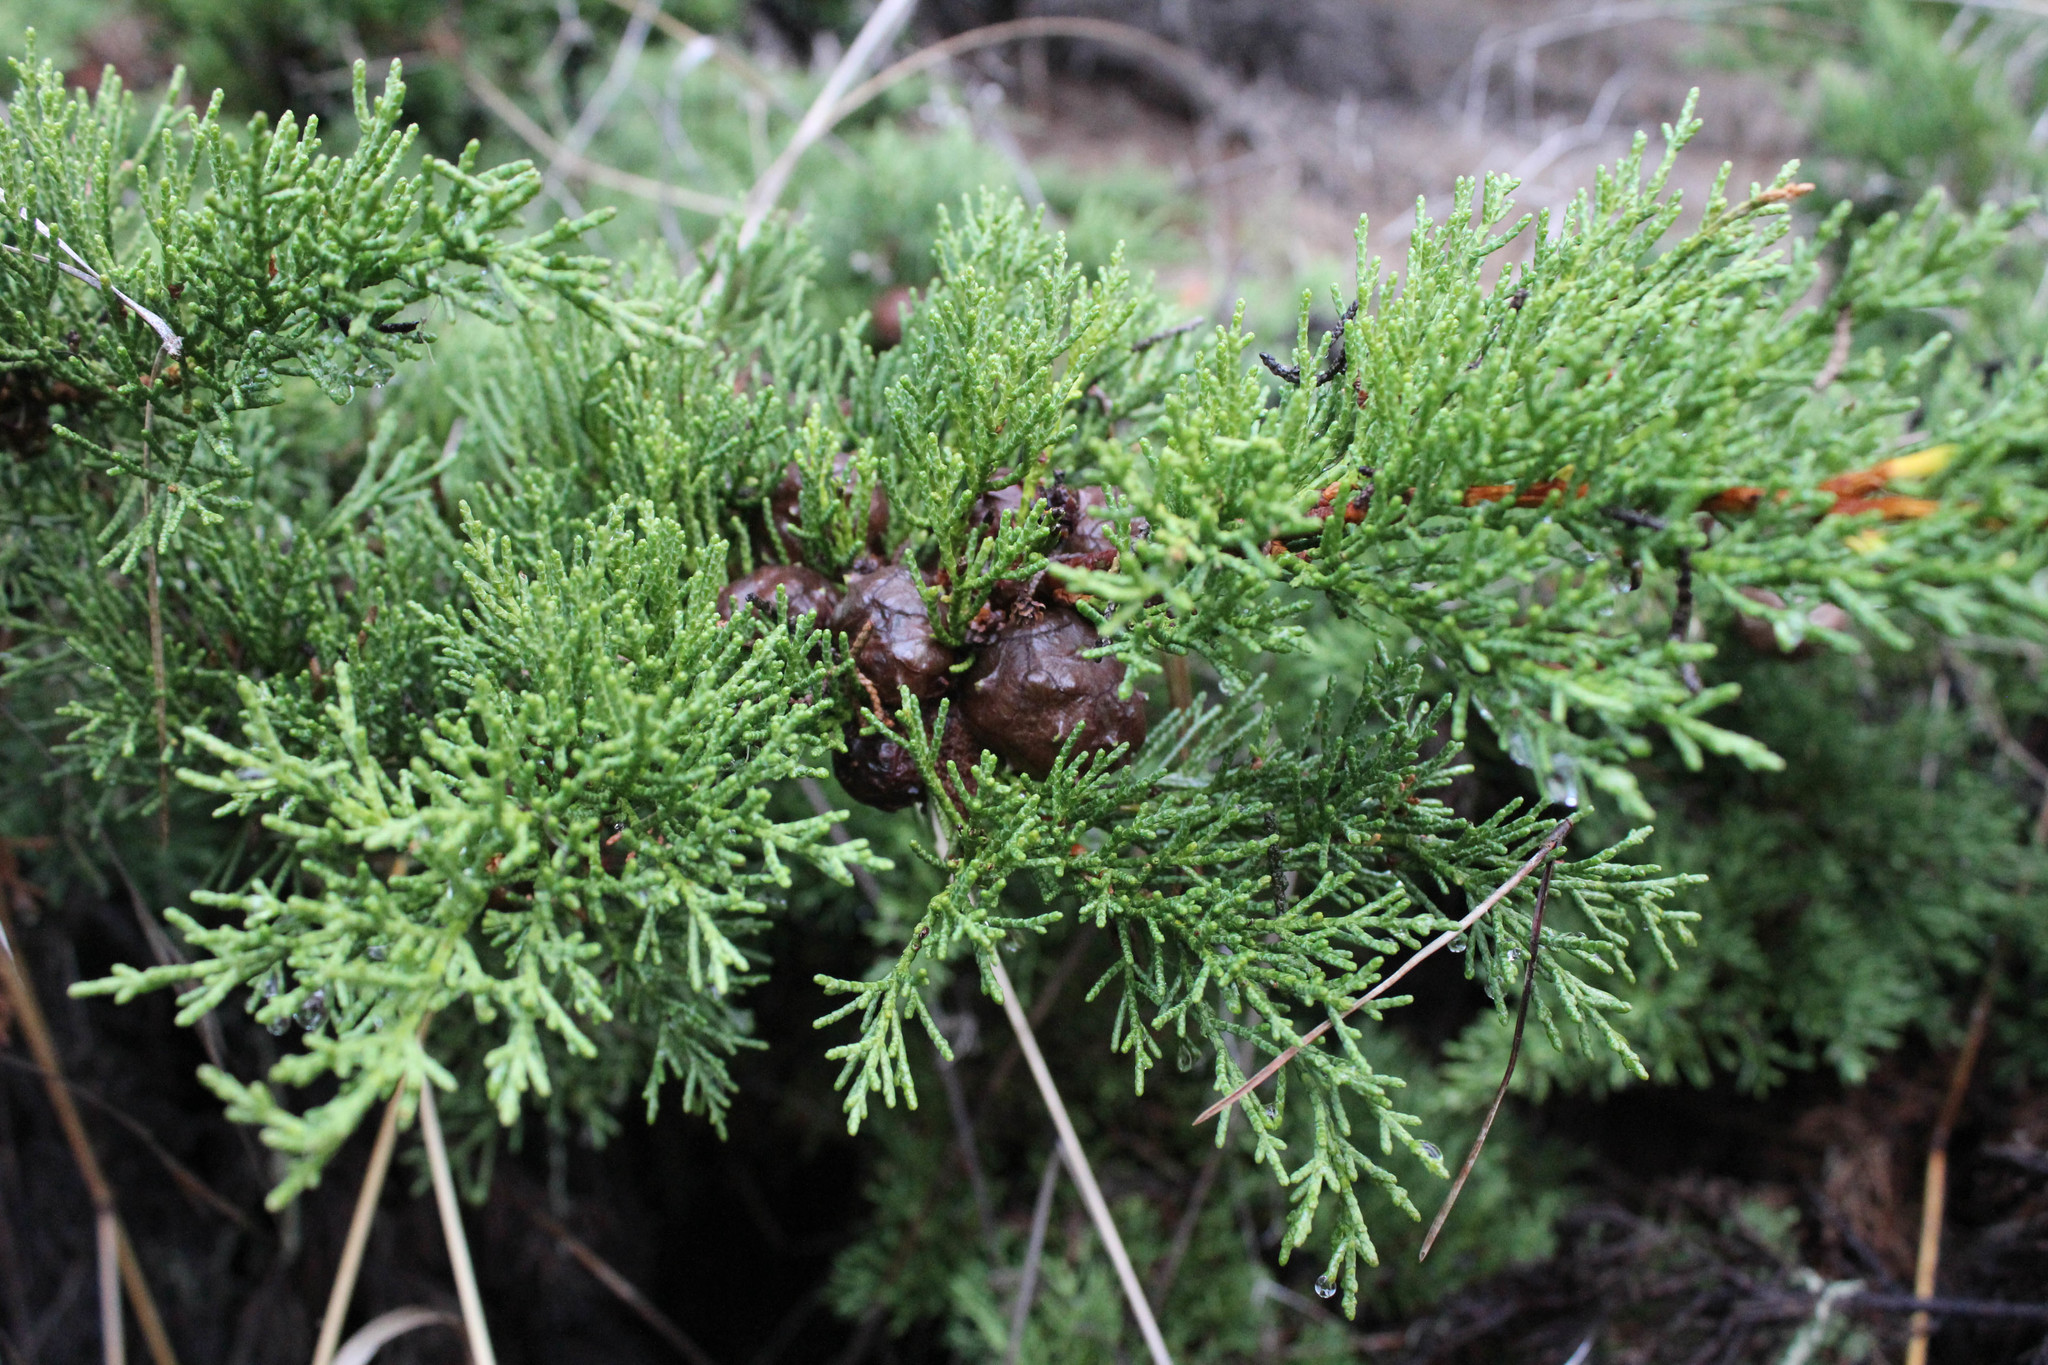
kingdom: Plantae
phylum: Tracheophyta
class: Pinopsida
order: Pinales
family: Cupressaceae
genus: Cupressus
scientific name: Cupressus macrocarpa
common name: Monterey cypress
